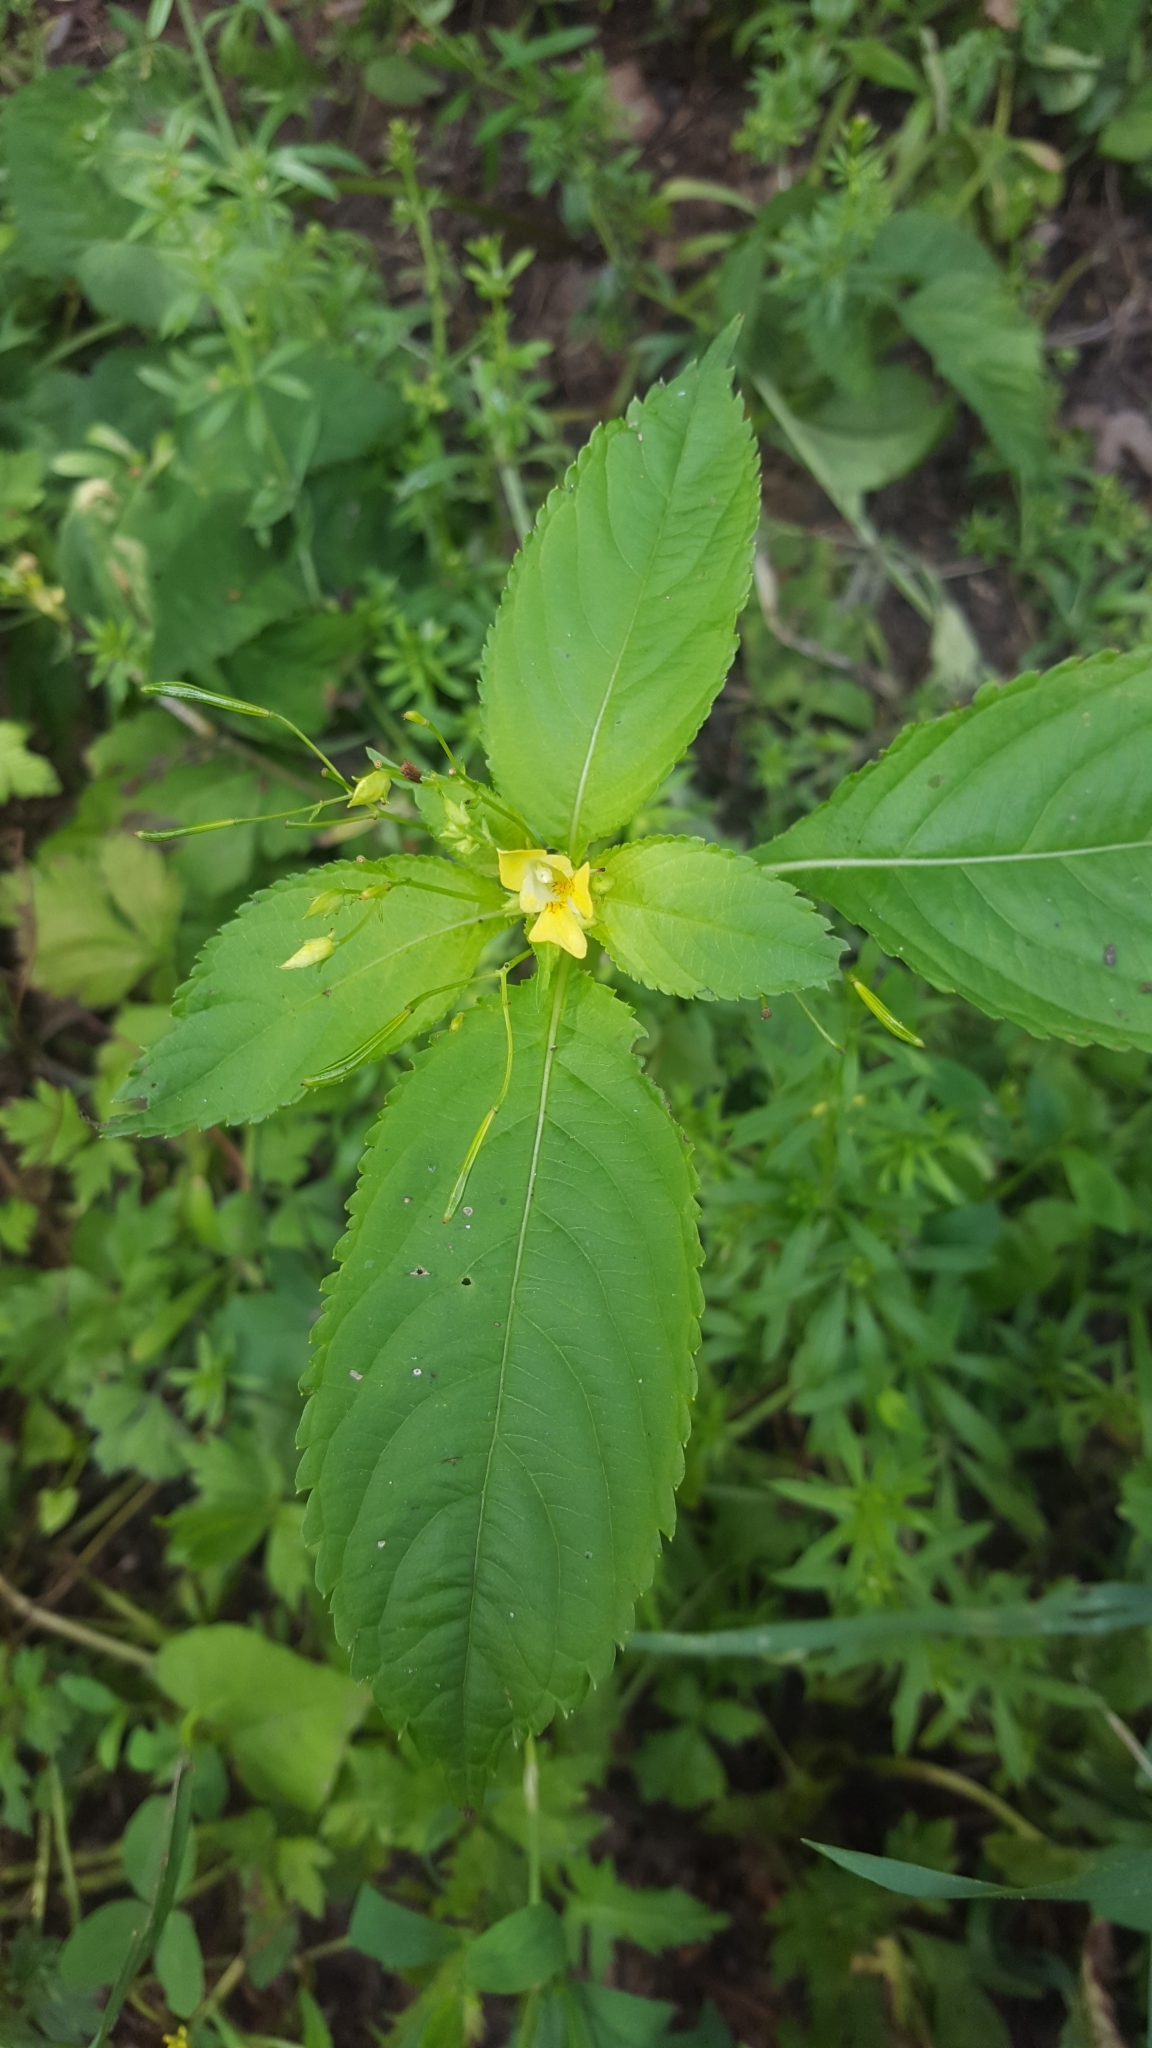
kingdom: Plantae
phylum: Tracheophyta
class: Magnoliopsida
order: Ericales
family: Balsaminaceae
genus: Impatiens
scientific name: Impatiens parviflora
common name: Small balsam
